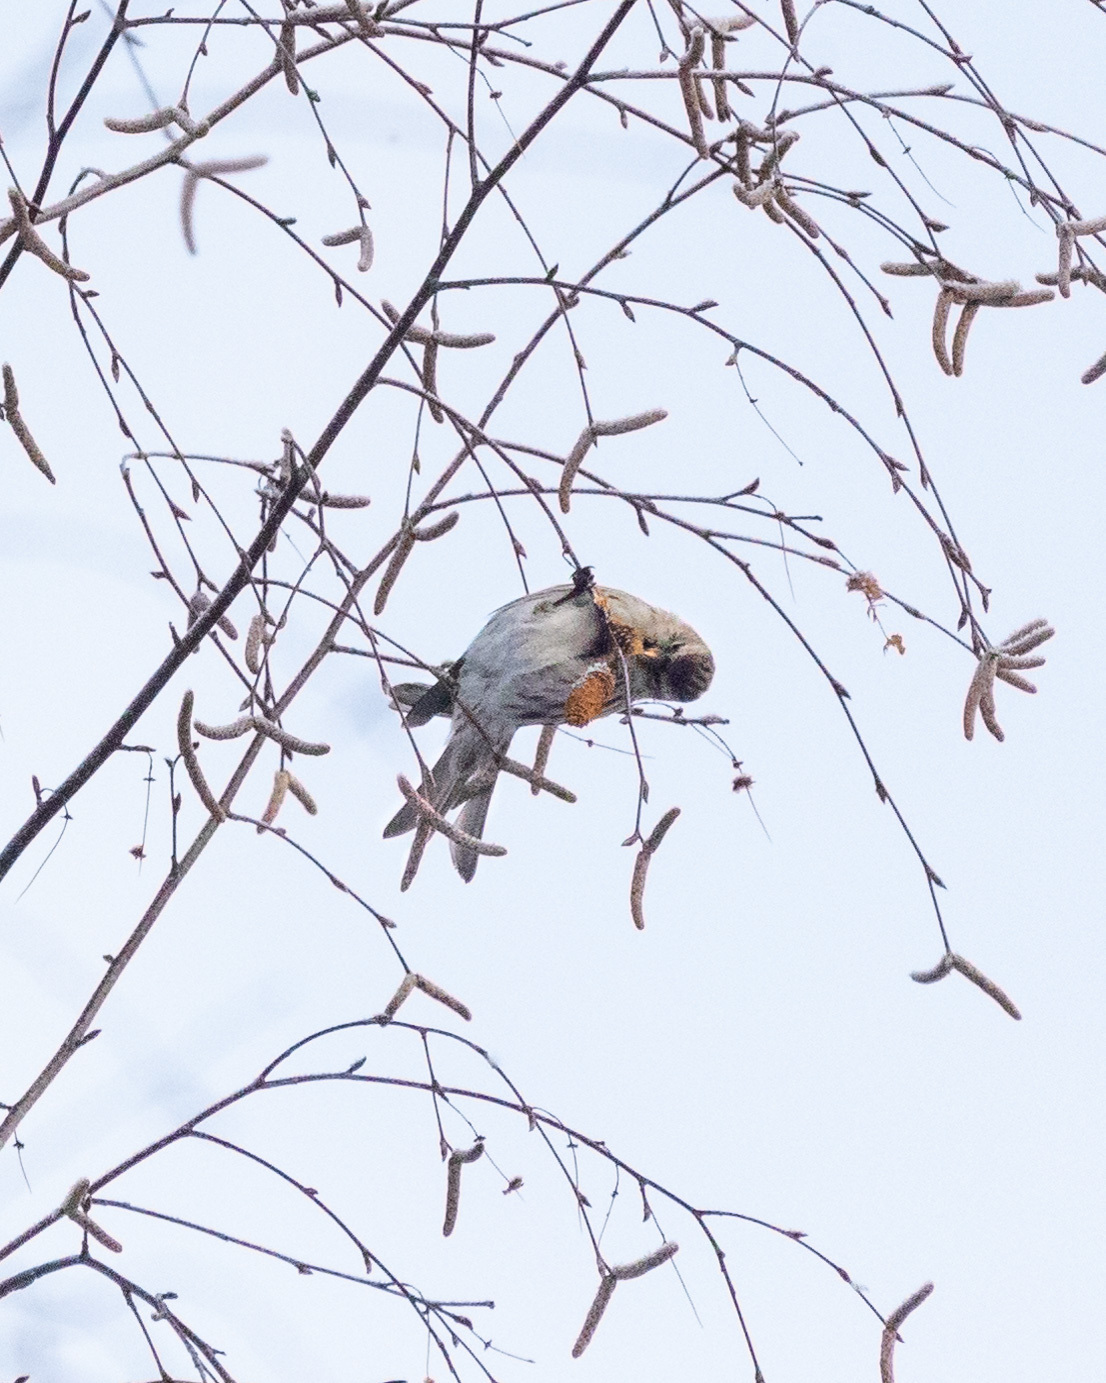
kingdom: Animalia
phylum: Chordata
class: Aves
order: Passeriformes
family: Fringillidae
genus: Acanthis
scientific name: Acanthis flammea
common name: Common redpoll
